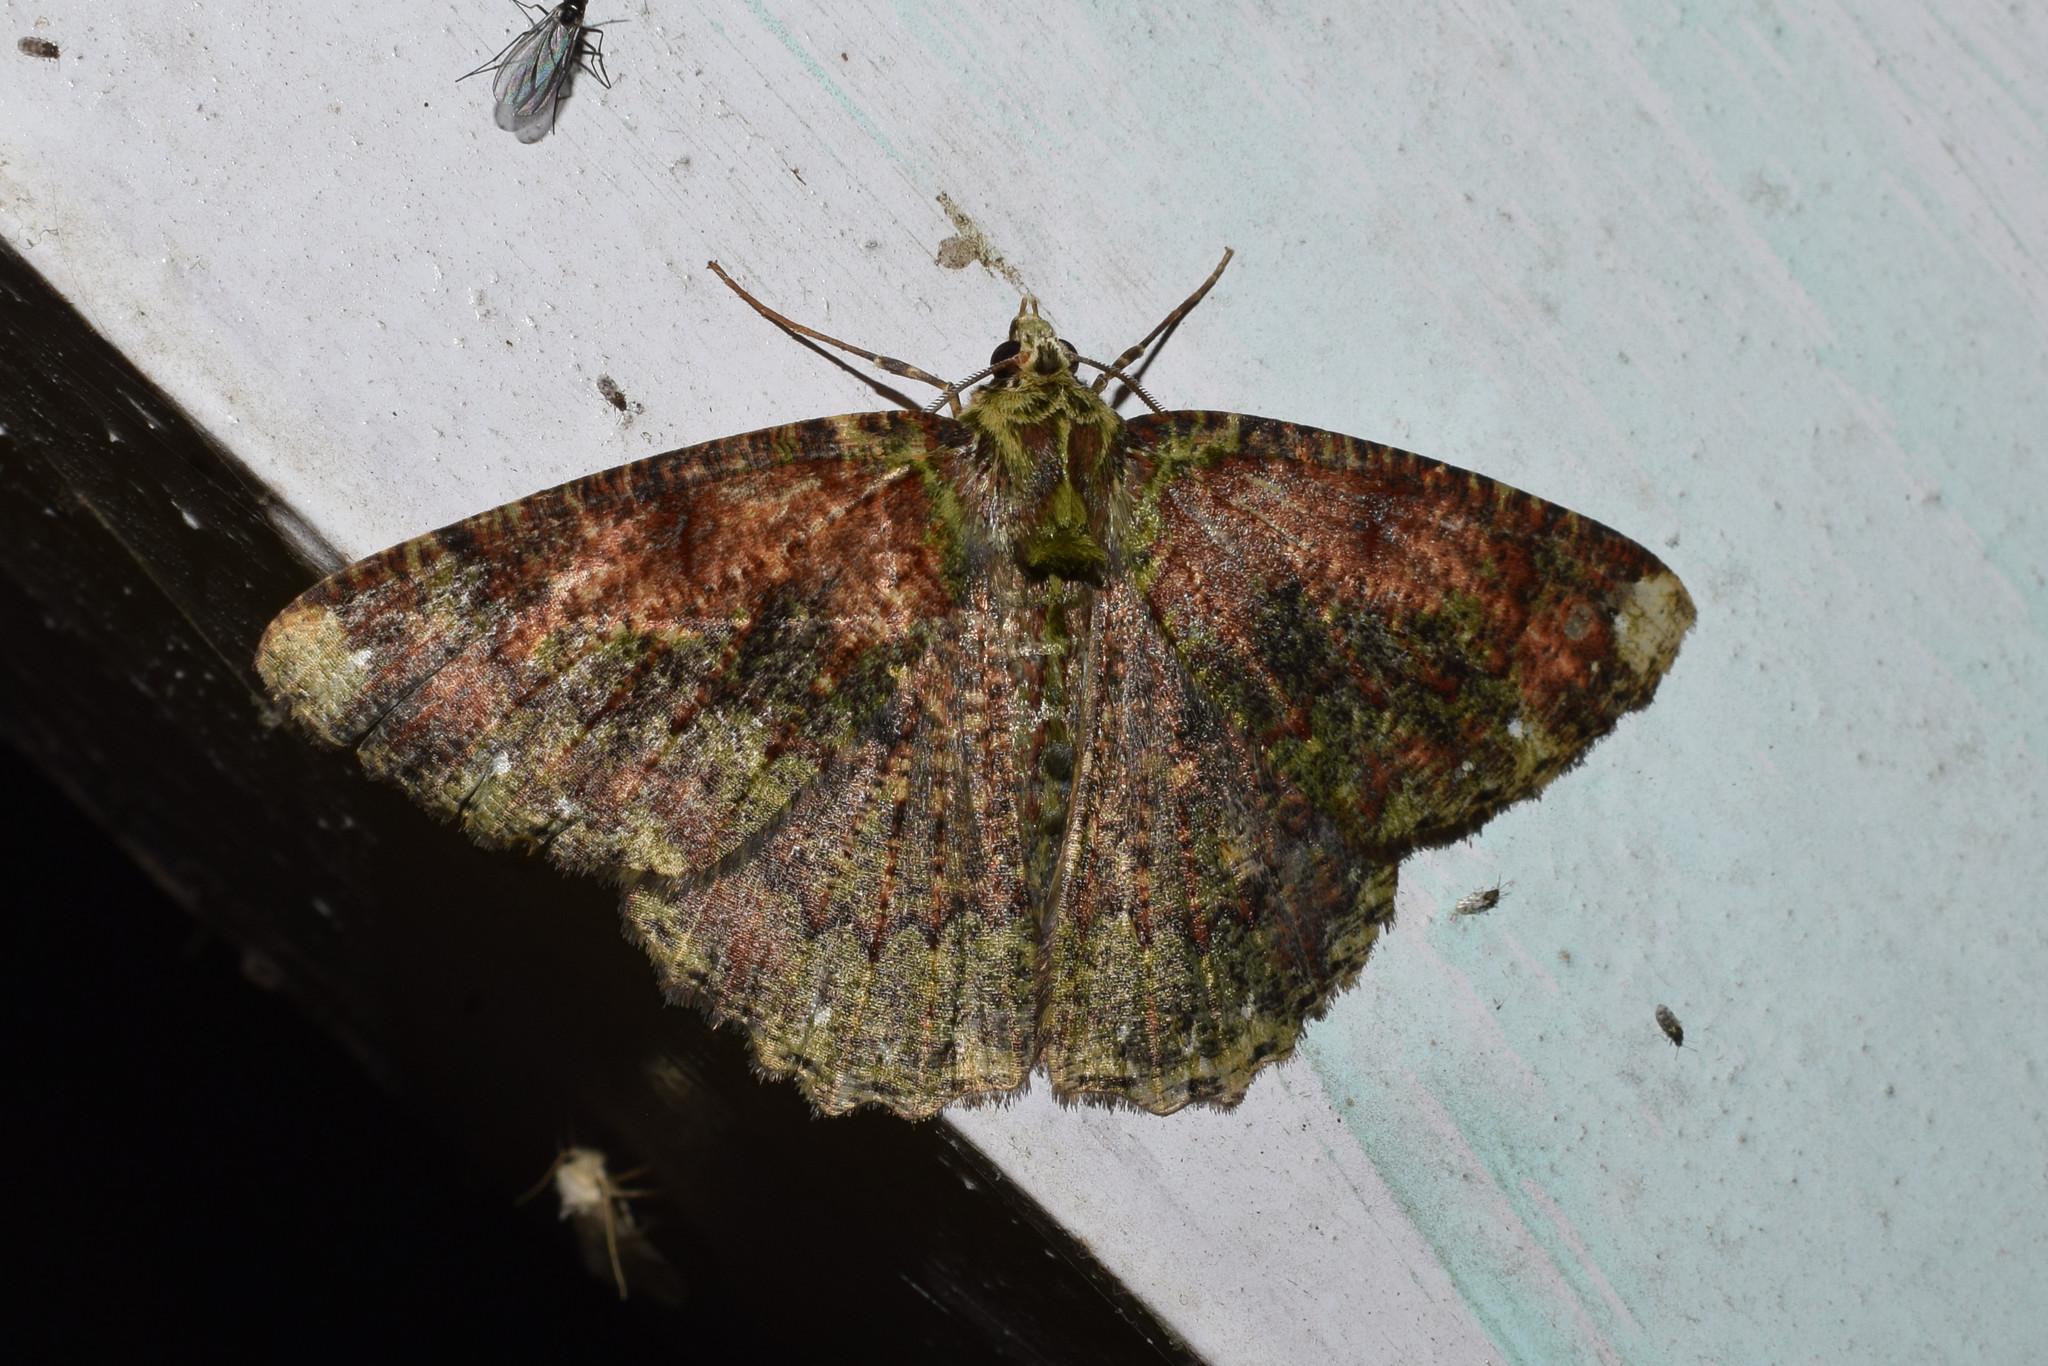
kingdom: Animalia
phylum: Arthropoda
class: Insecta
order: Lepidoptera
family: Geometridae
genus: Dindicodes
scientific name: Dindicodes apicalis
